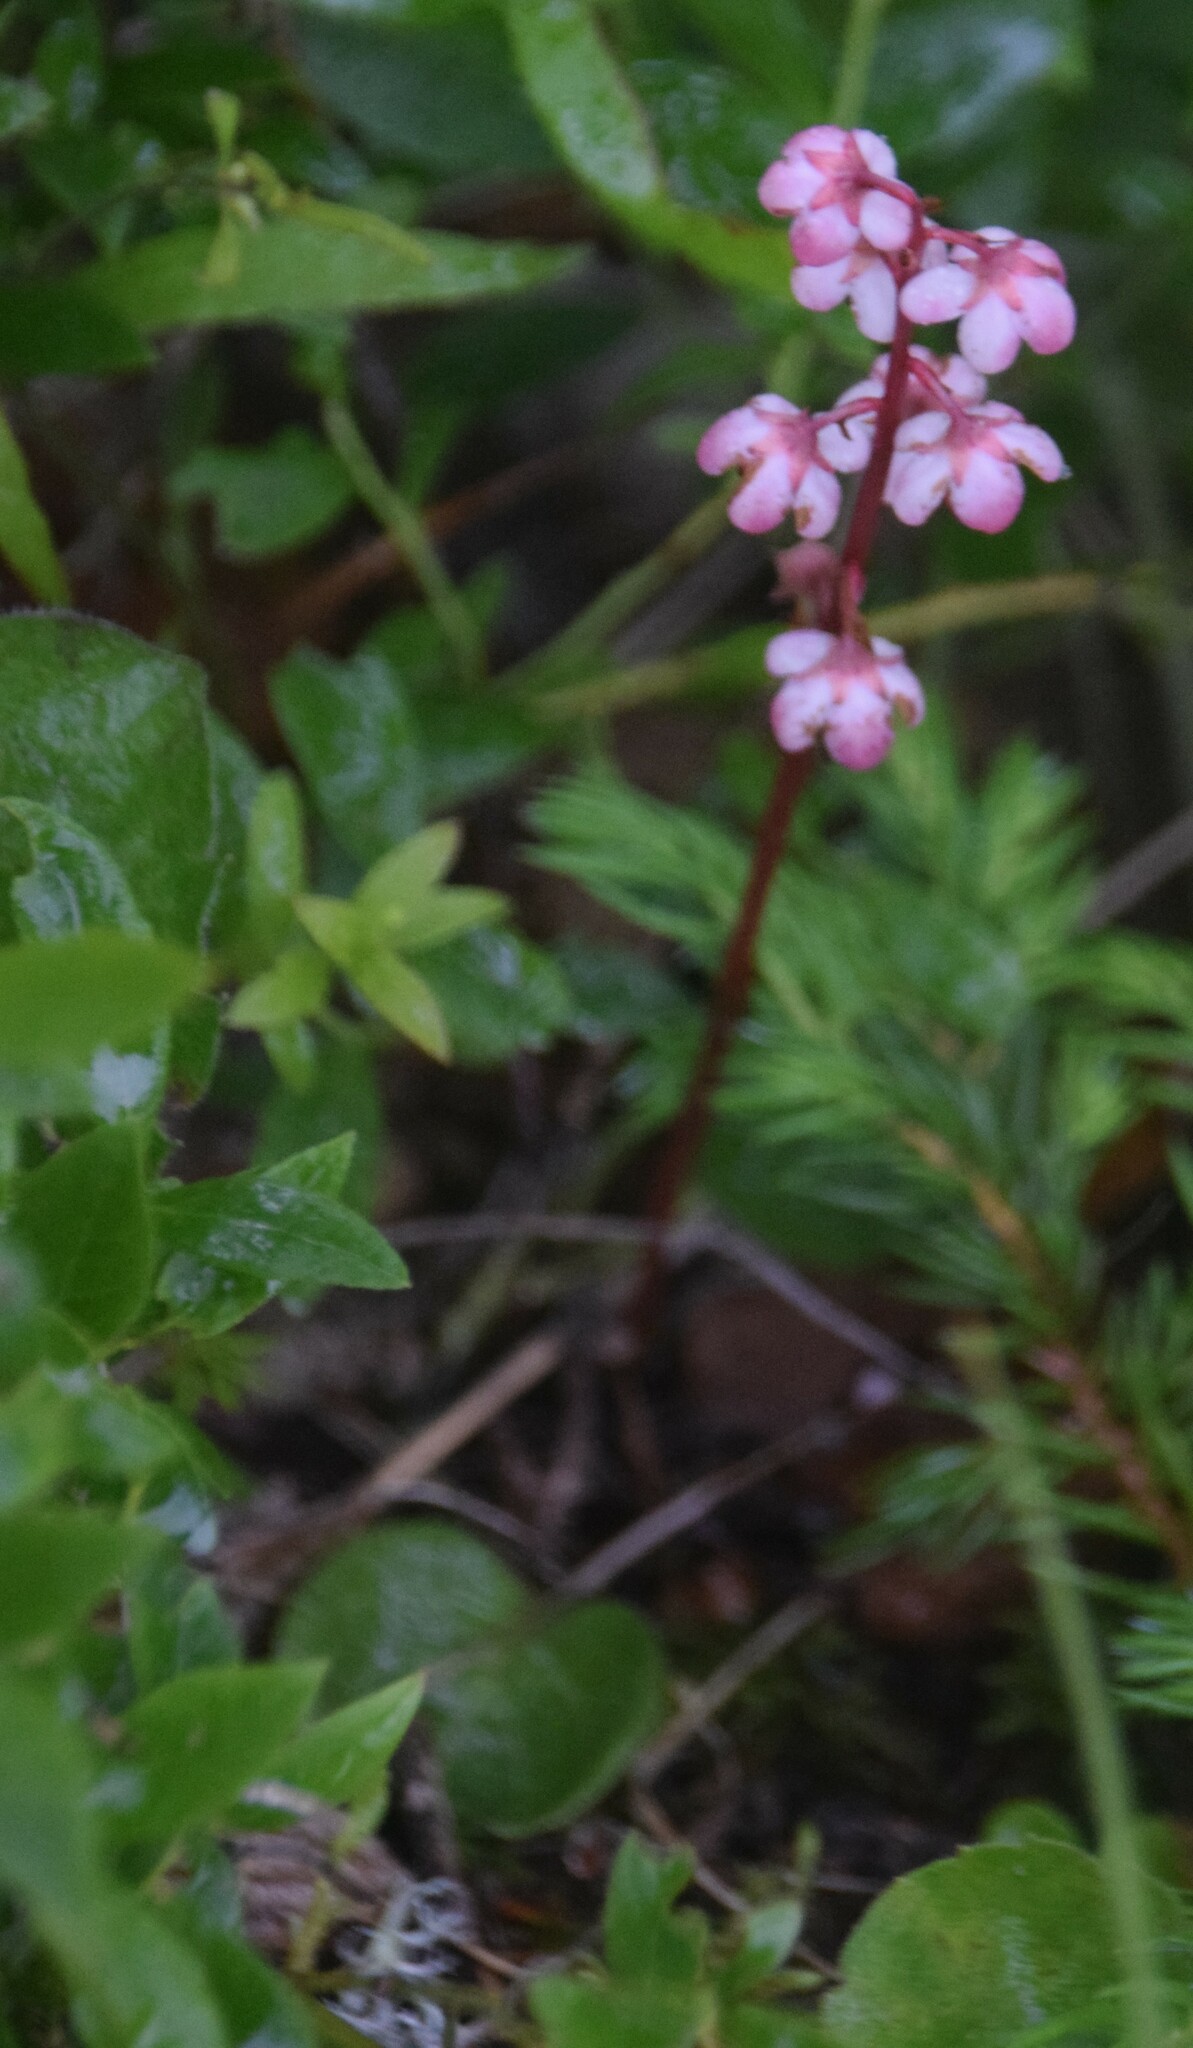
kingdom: Plantae
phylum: Tracheophyta
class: Magnoliopsida
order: Ericales
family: Ericaceae
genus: Pyrola
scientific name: Pyrola asarifolia
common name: Bog wintergreen
